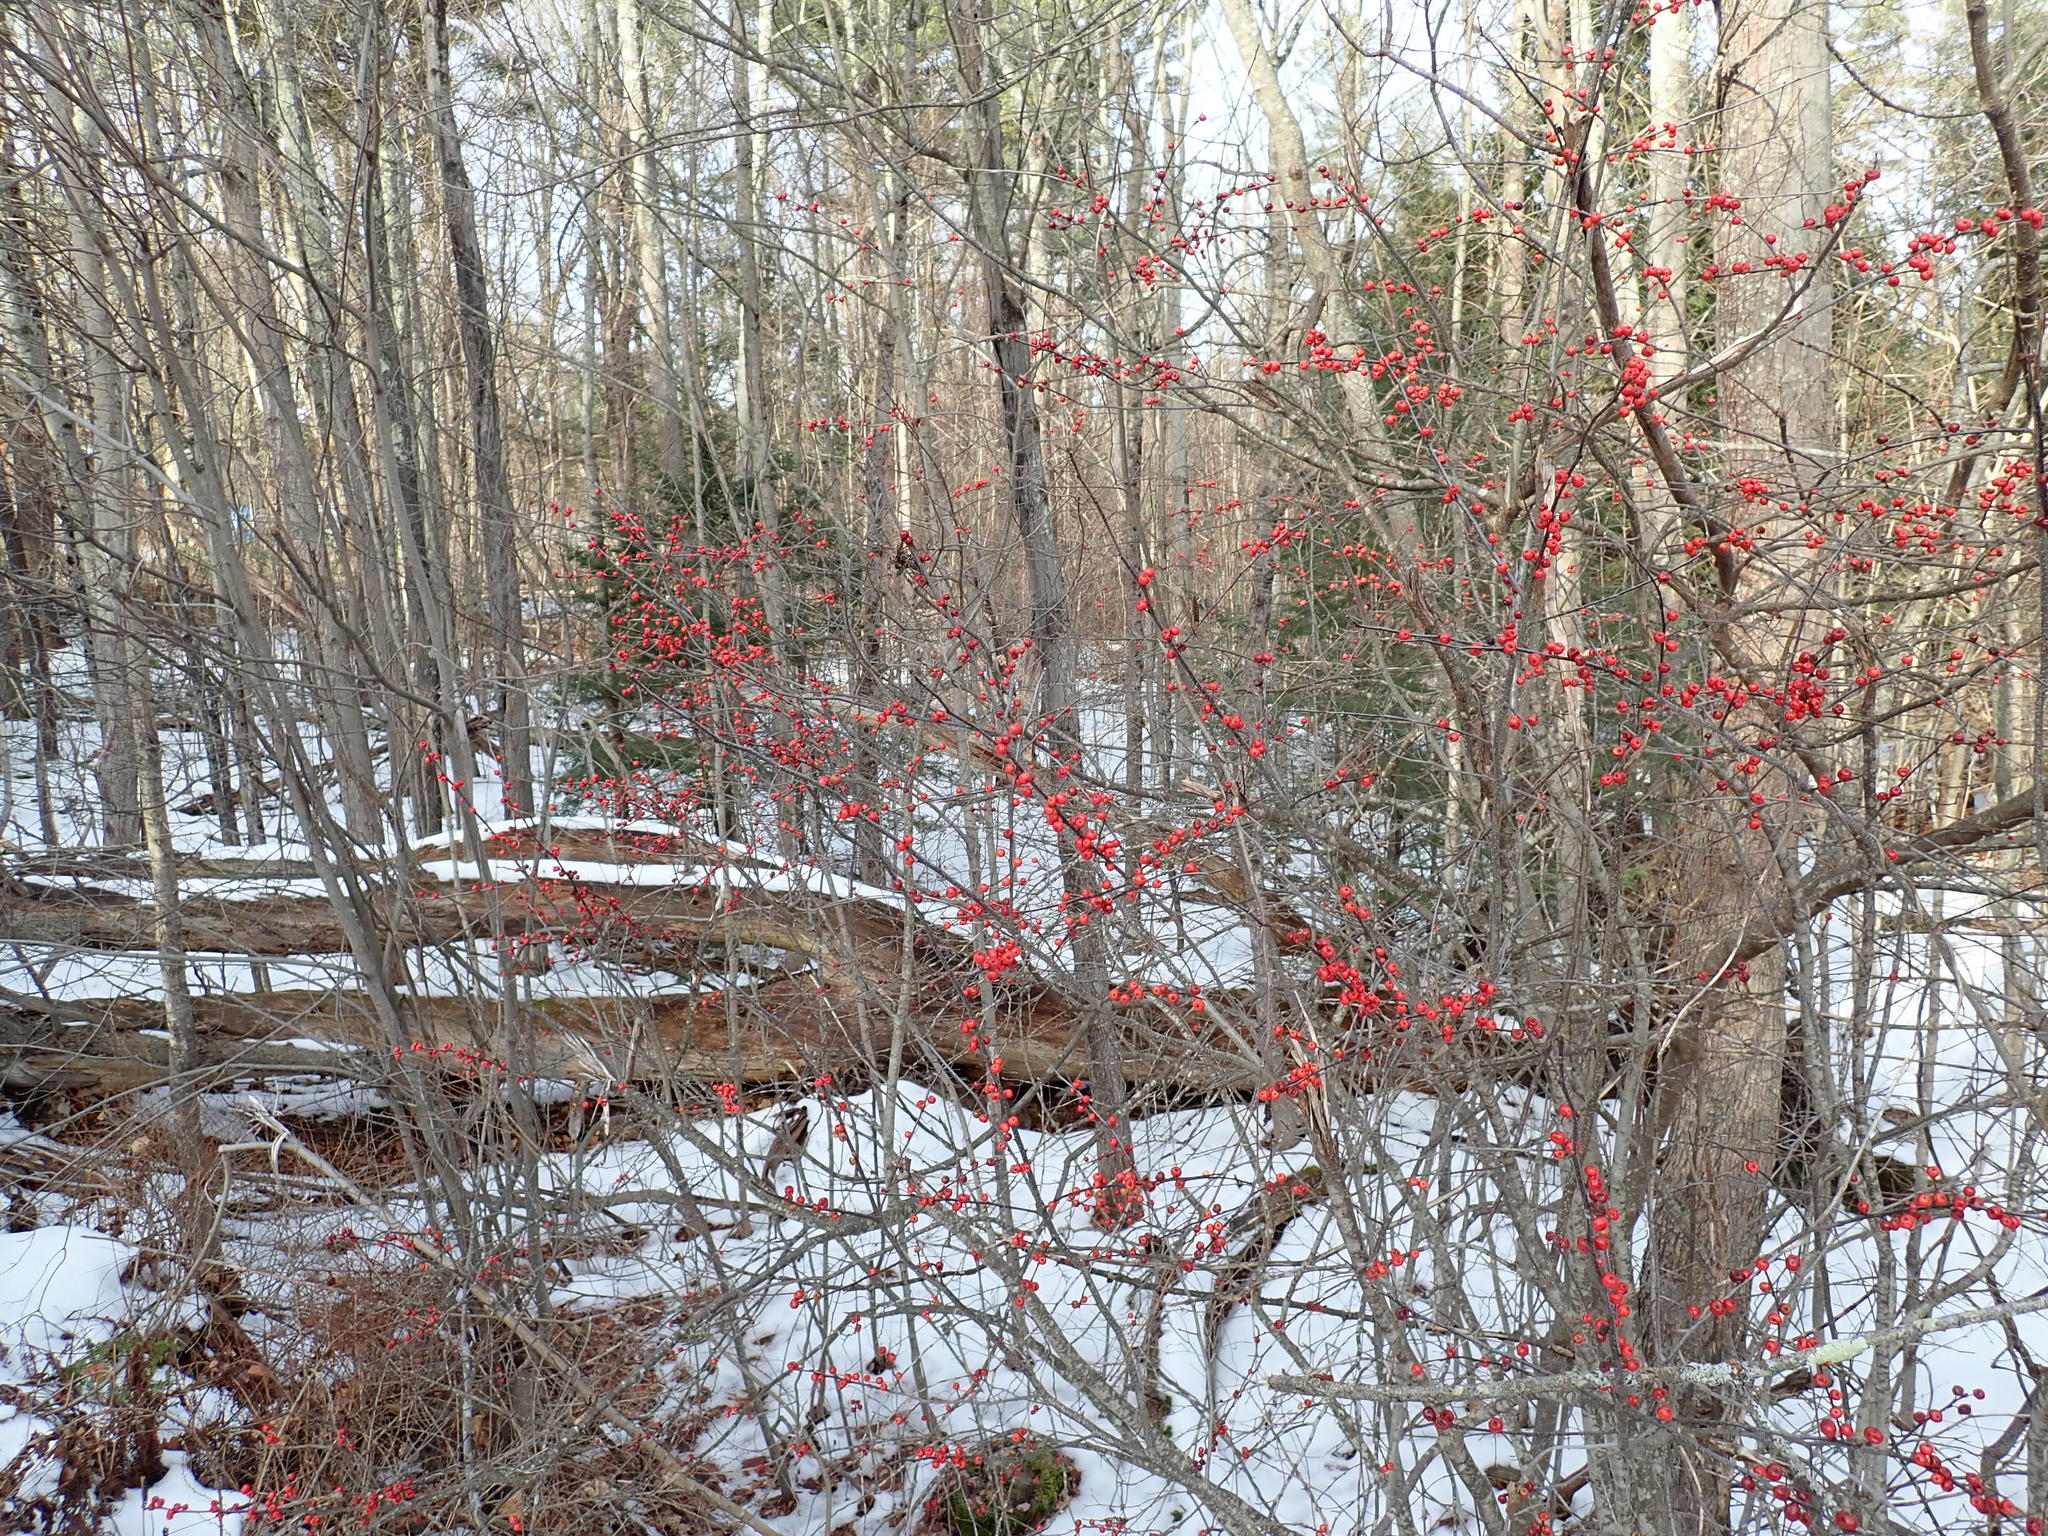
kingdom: Plantae
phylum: Tracheophyta
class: Magnoliopsida
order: Aquifoliales
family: Aquifoliaceae
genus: Ilex
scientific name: Ilex verticillata
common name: Virginia winterberry
